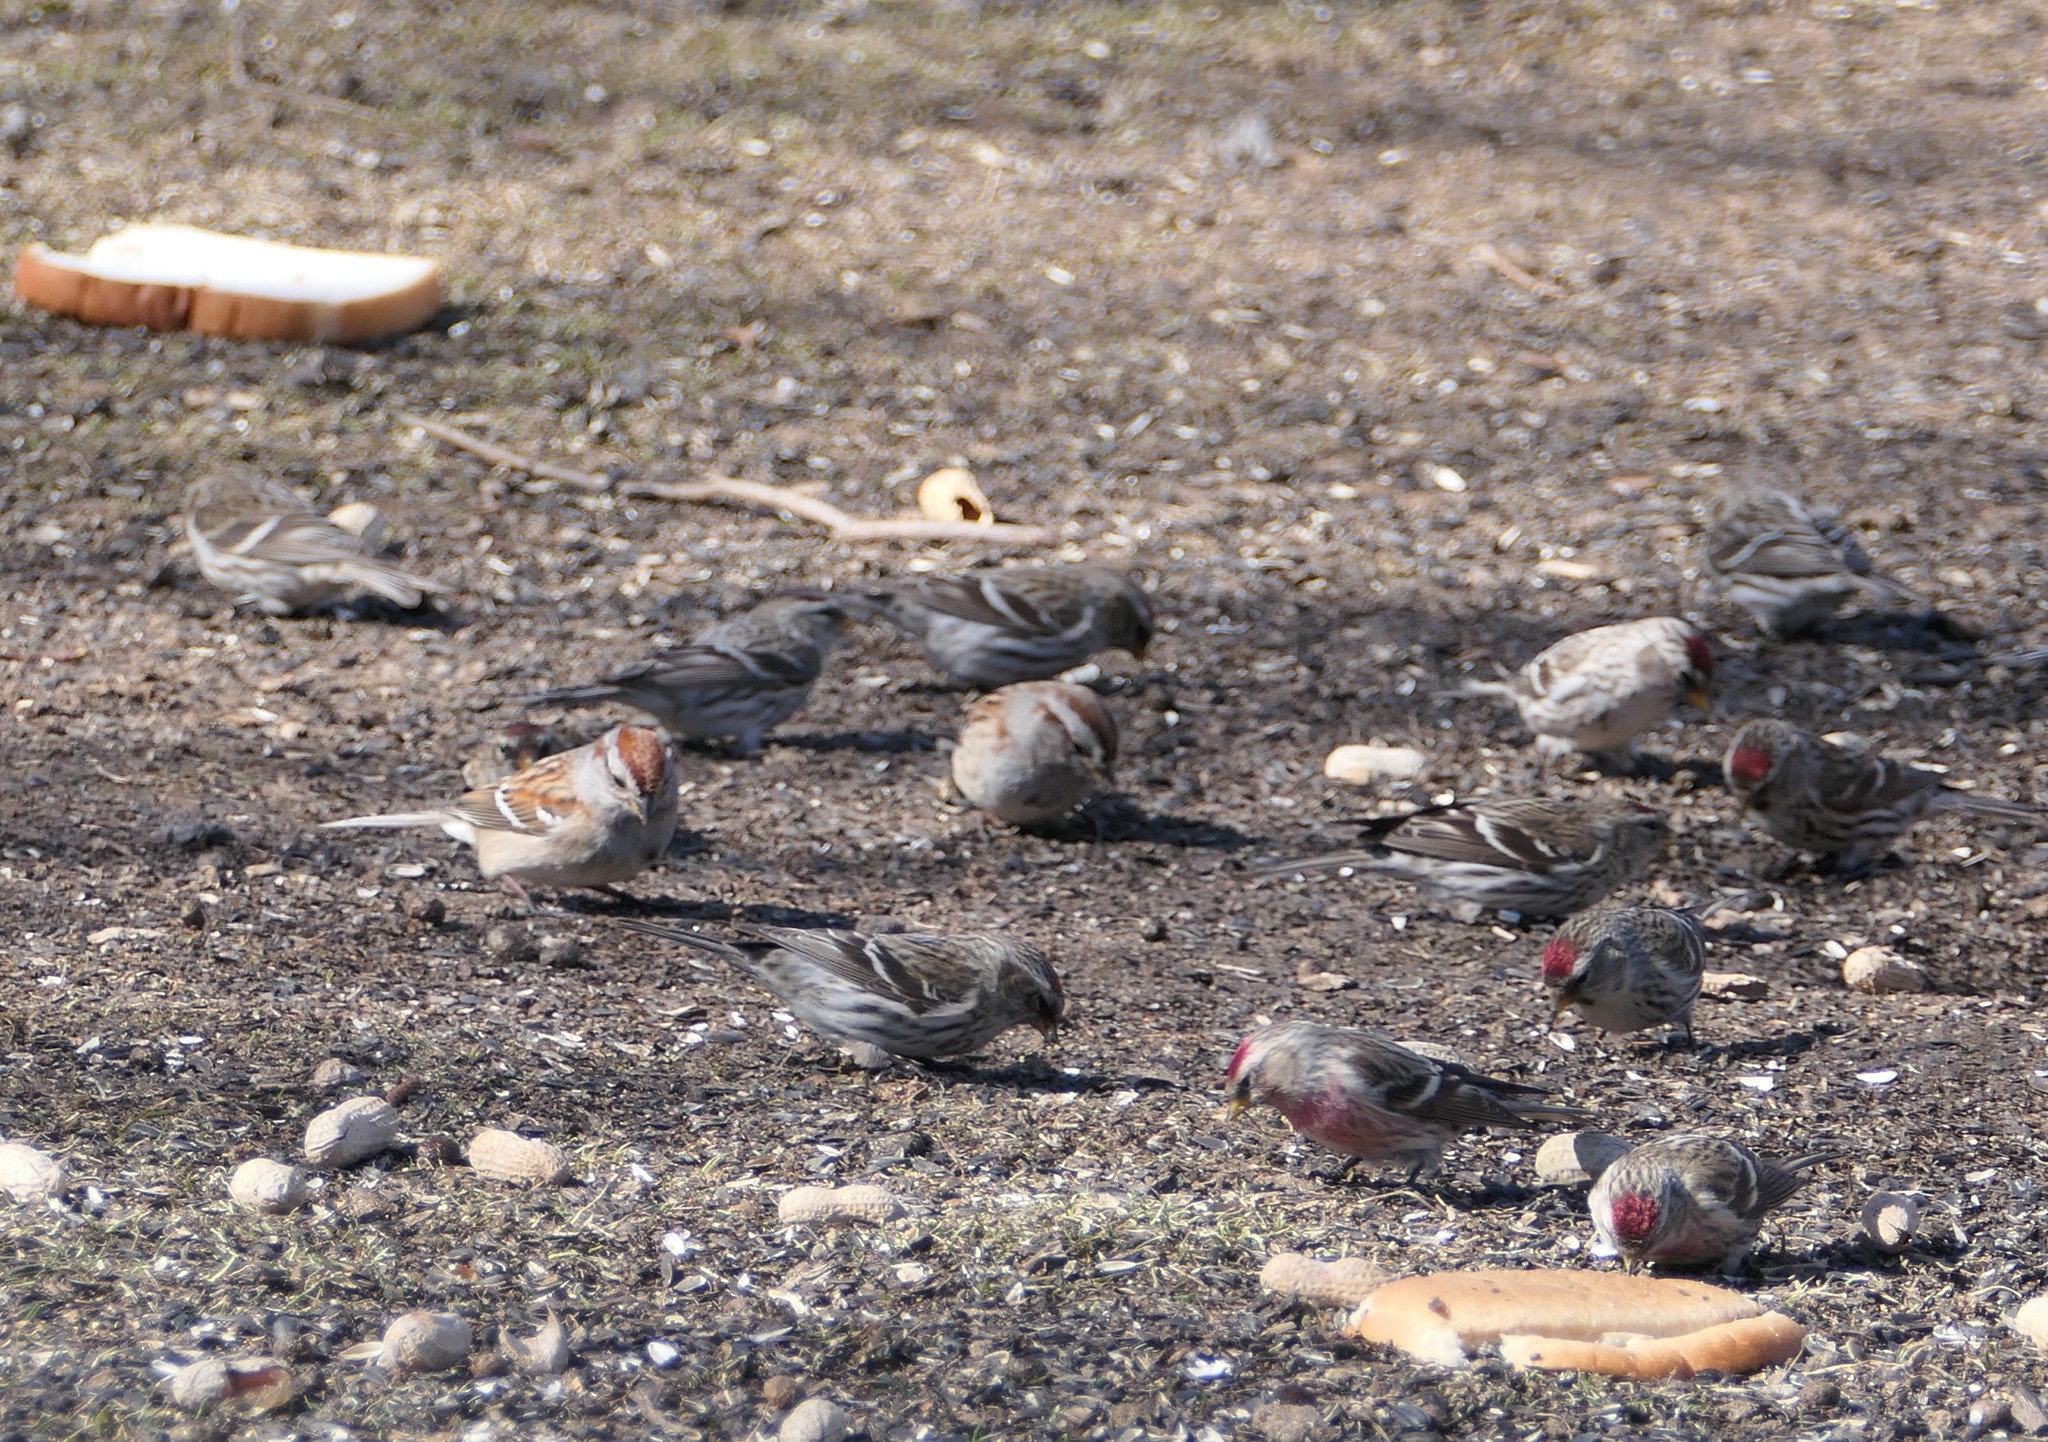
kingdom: Animalia
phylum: Chordata
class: Aves
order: Passeriformes
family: Passerellidae
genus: Spizelloides
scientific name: Spizelloides arborea
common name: American tree sparrow
